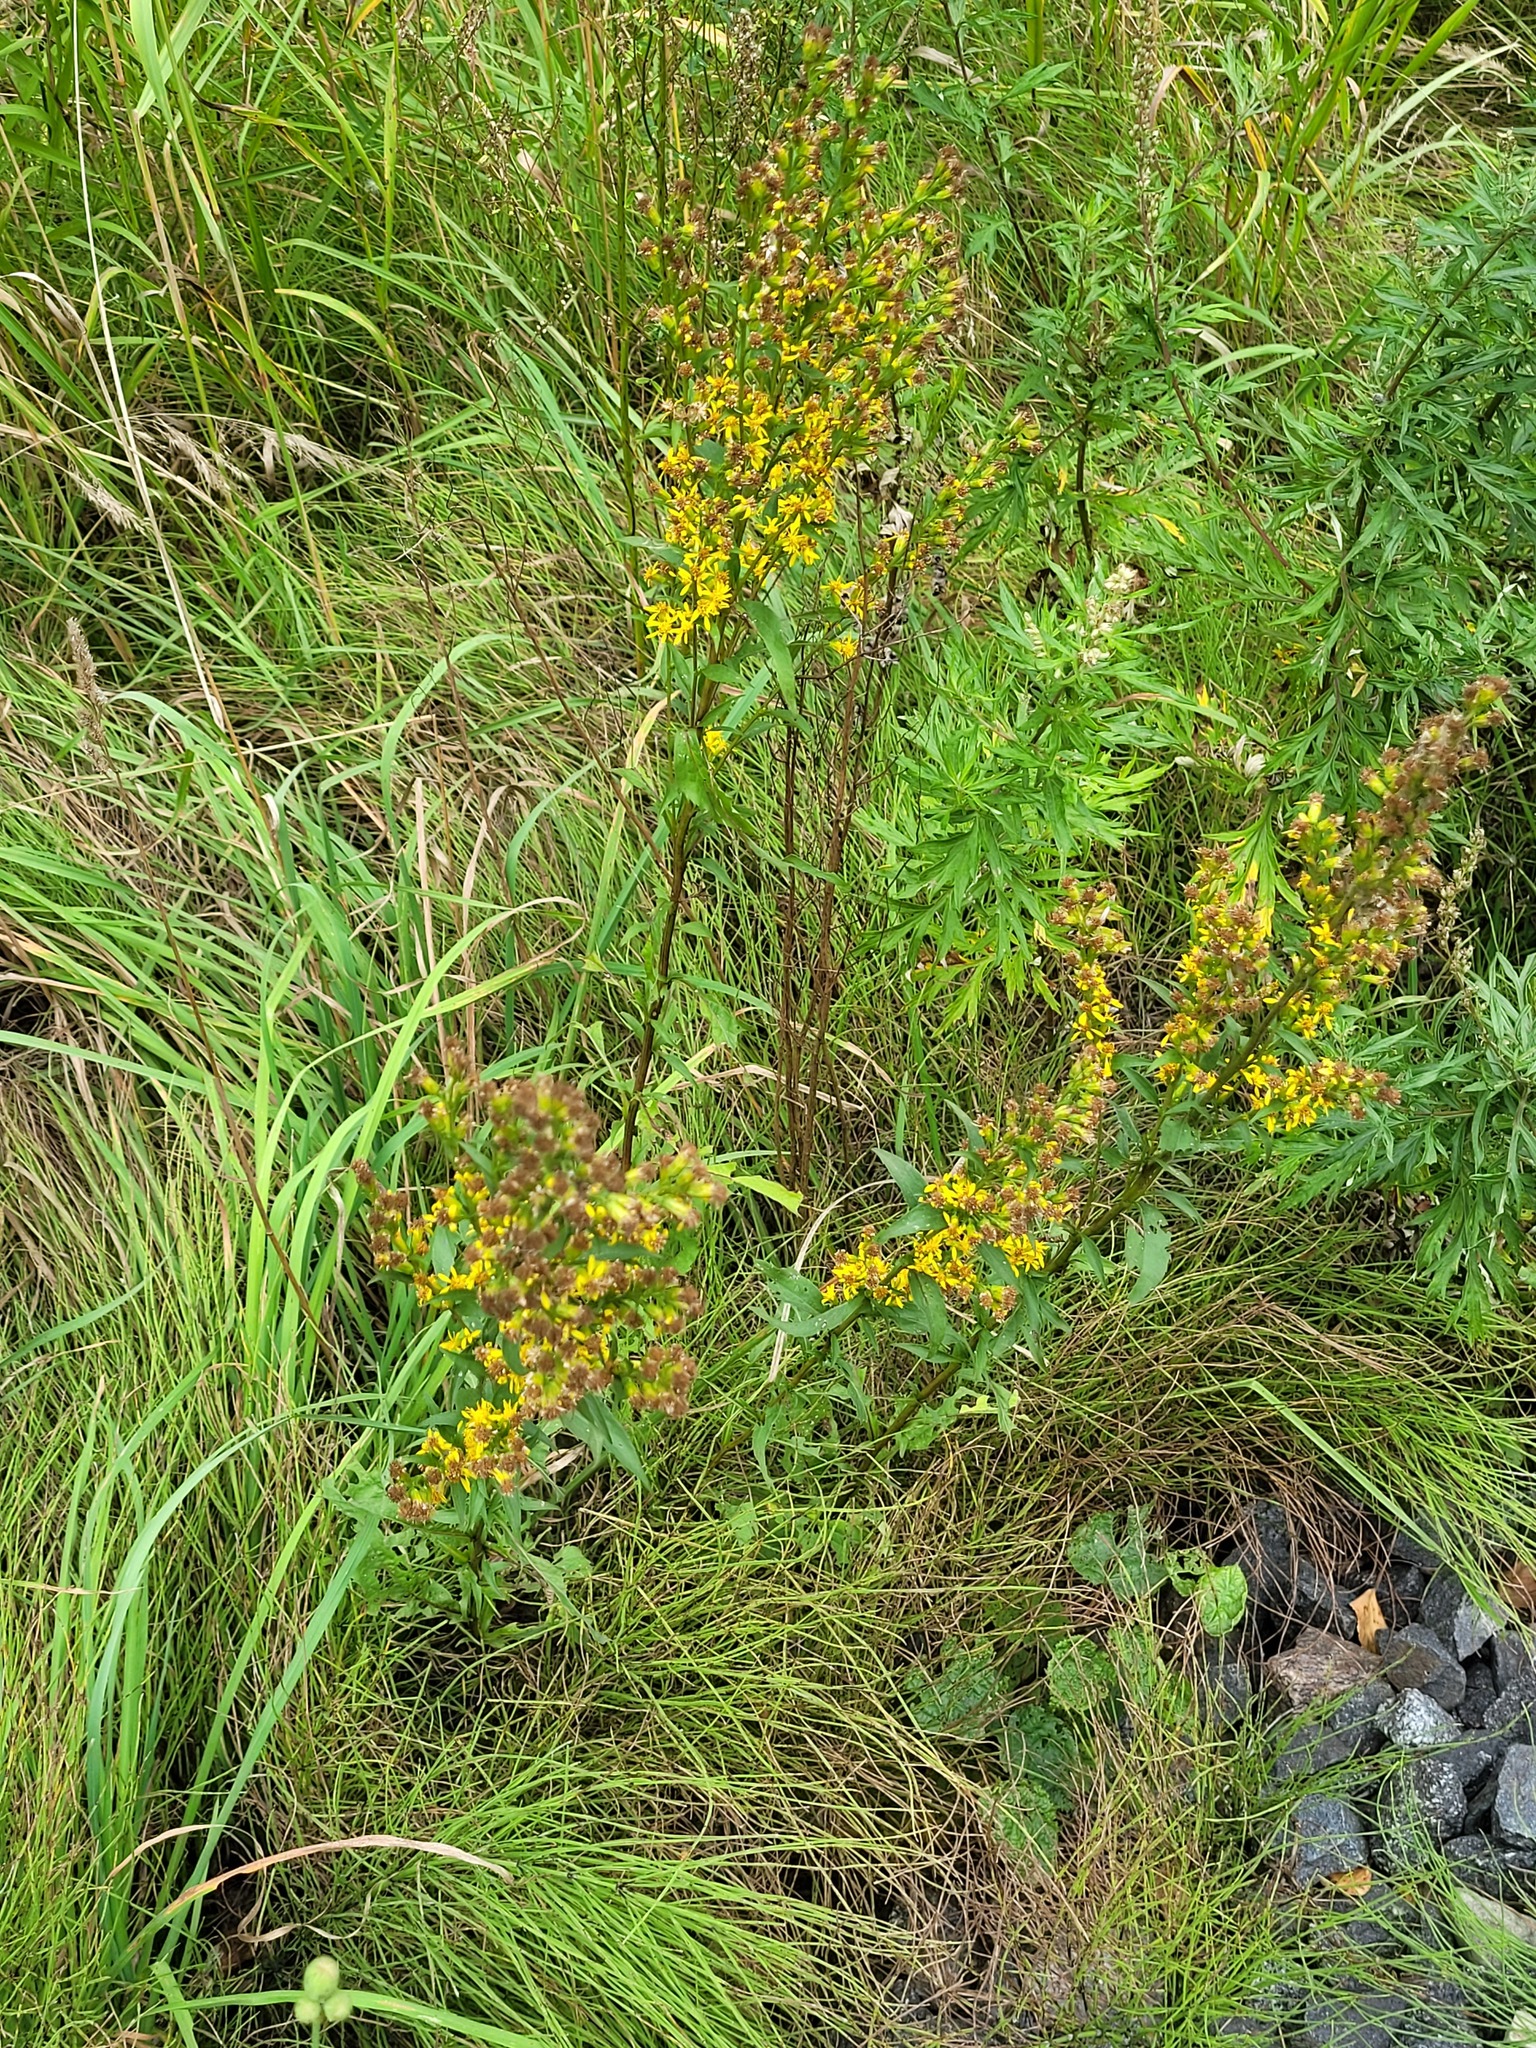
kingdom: Plantae
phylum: Tracheophyta
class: Magnoliopsida
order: Asterales
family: Asteraceae
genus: Solidago
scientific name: Solidago virgaurea
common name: Goldenrod
